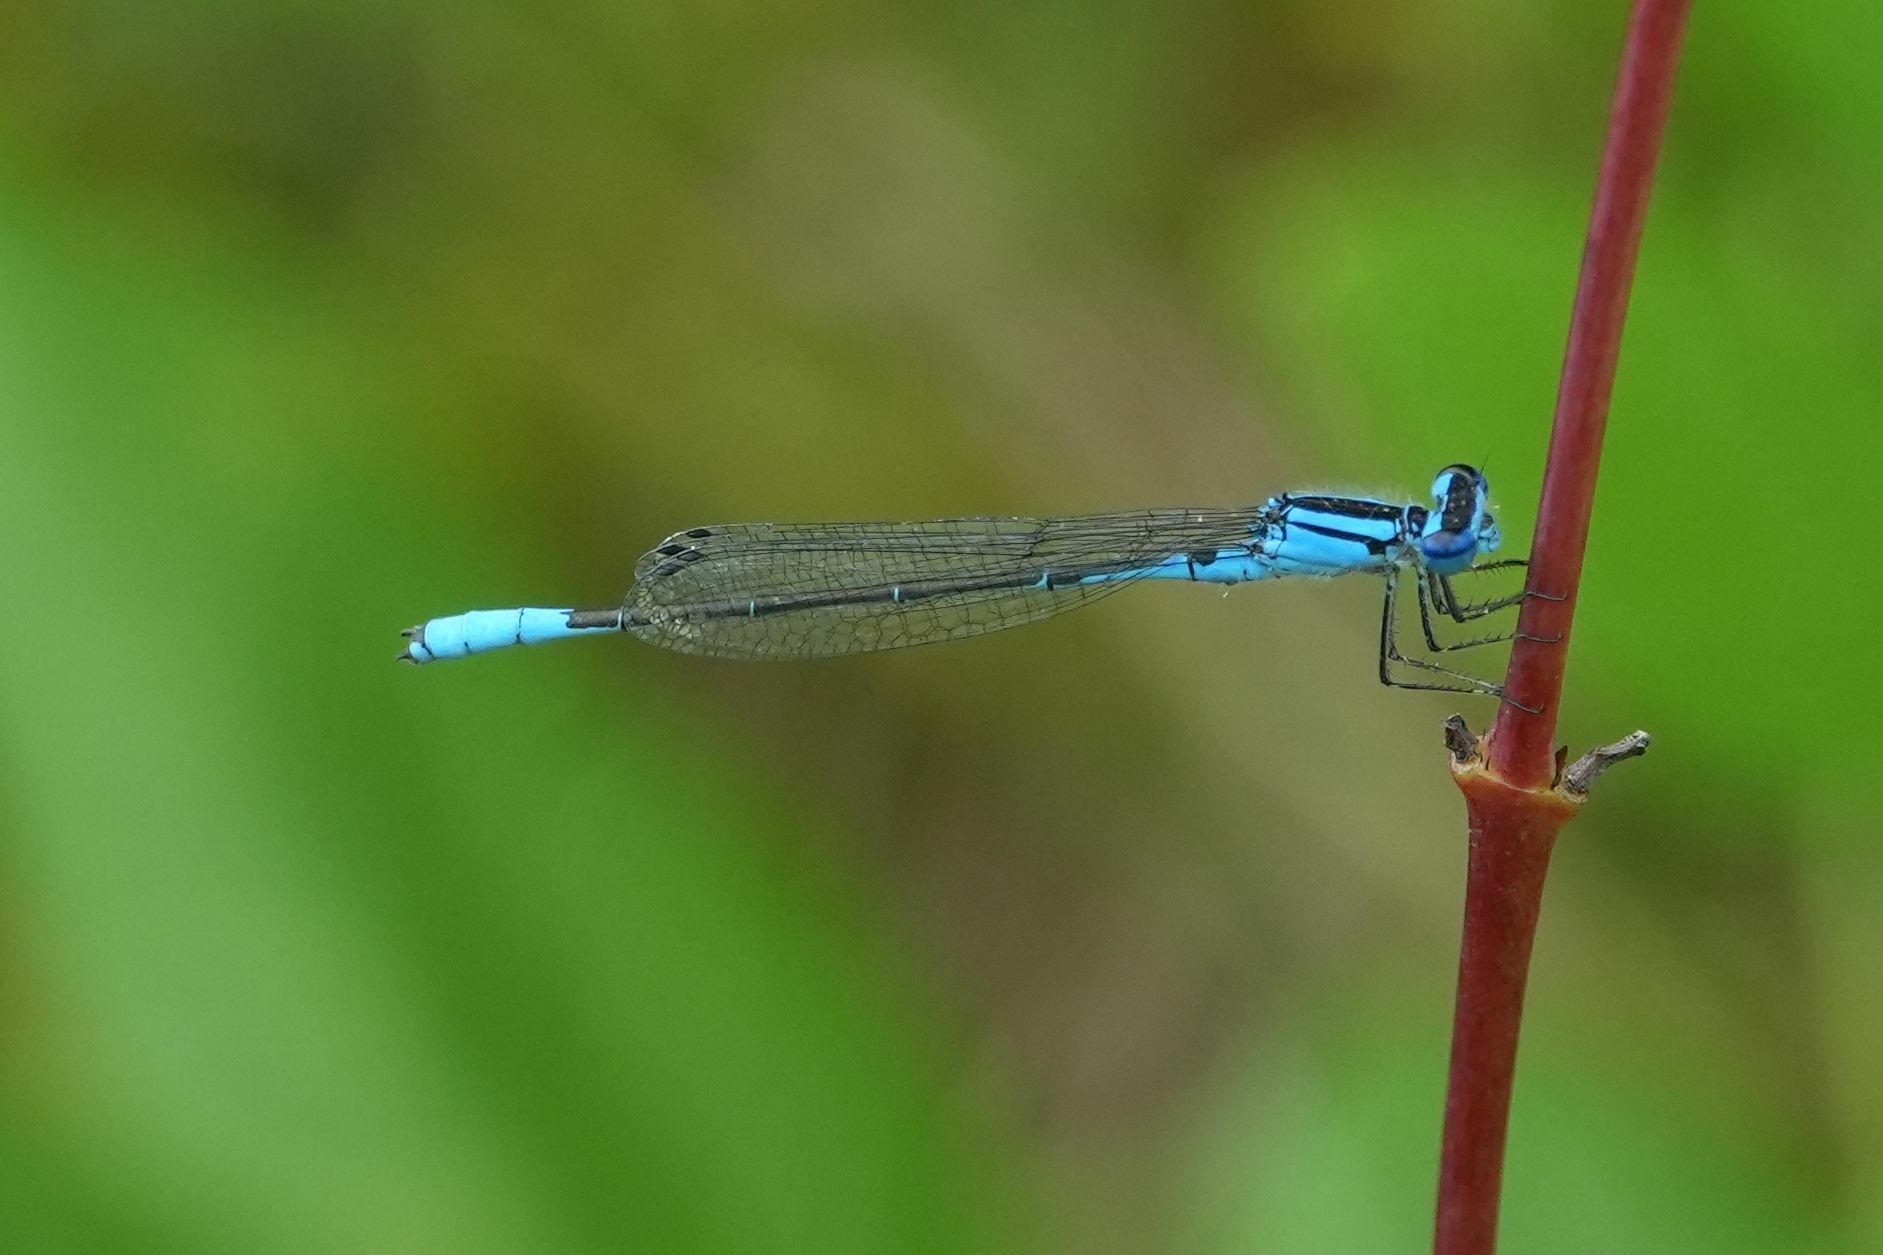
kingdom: Animalia
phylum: Arthropoda
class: Insecta
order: Odonata
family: Coenagrionidae
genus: Enallagma
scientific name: Enallagma aspersum
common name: Azure bluet
